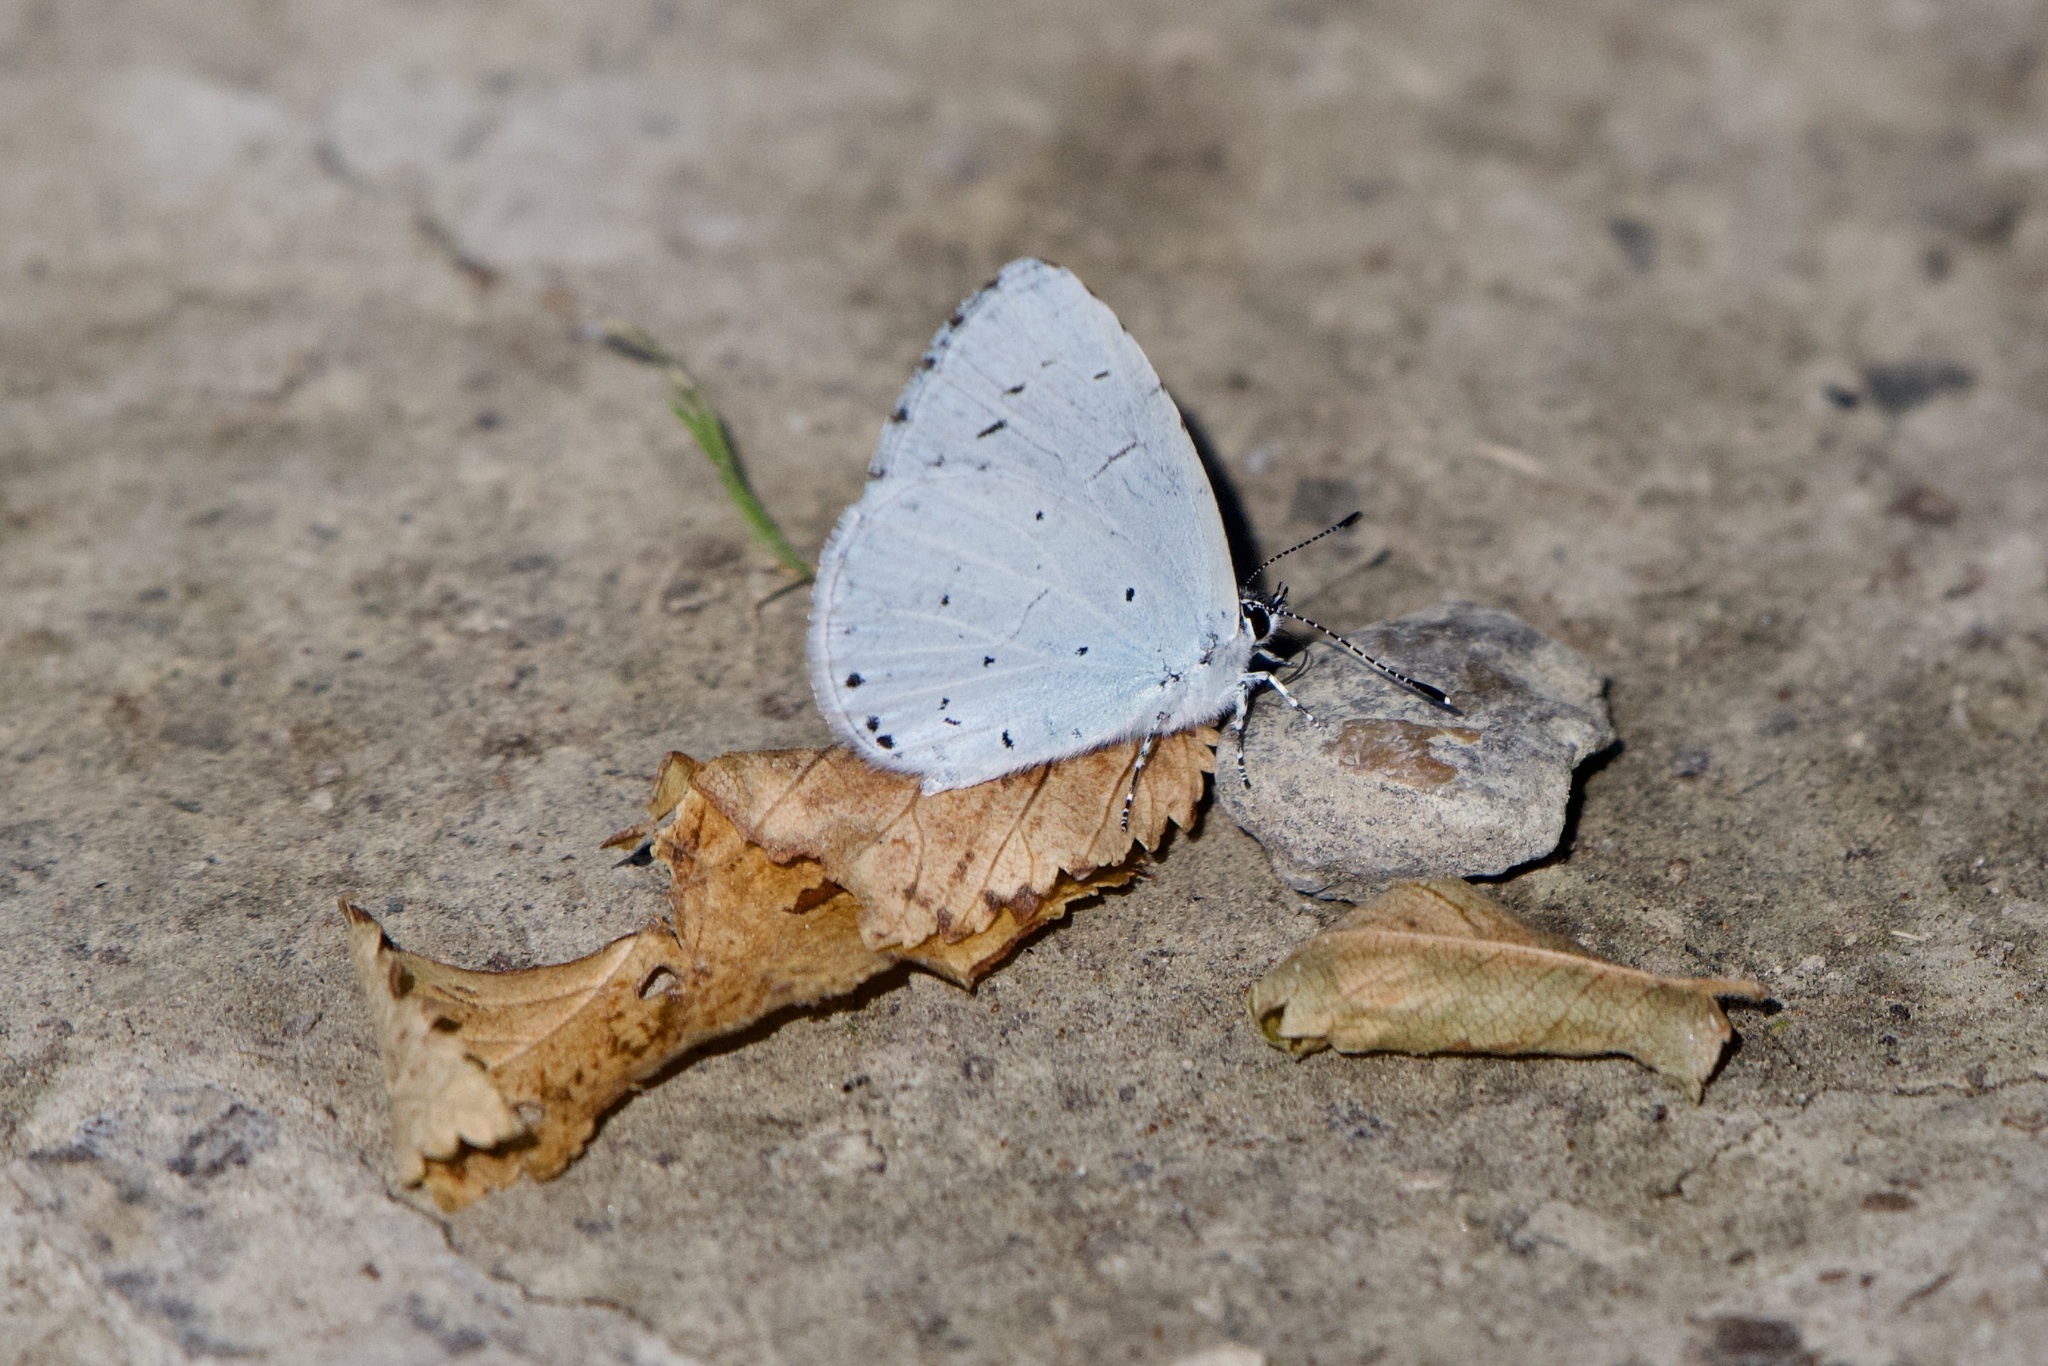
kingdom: Animalia
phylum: Arthropoda
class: Insecta
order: Lepidoptera
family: Lycaenidae
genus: Celastrina
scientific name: Celastrina argiolus
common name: Holly blue
